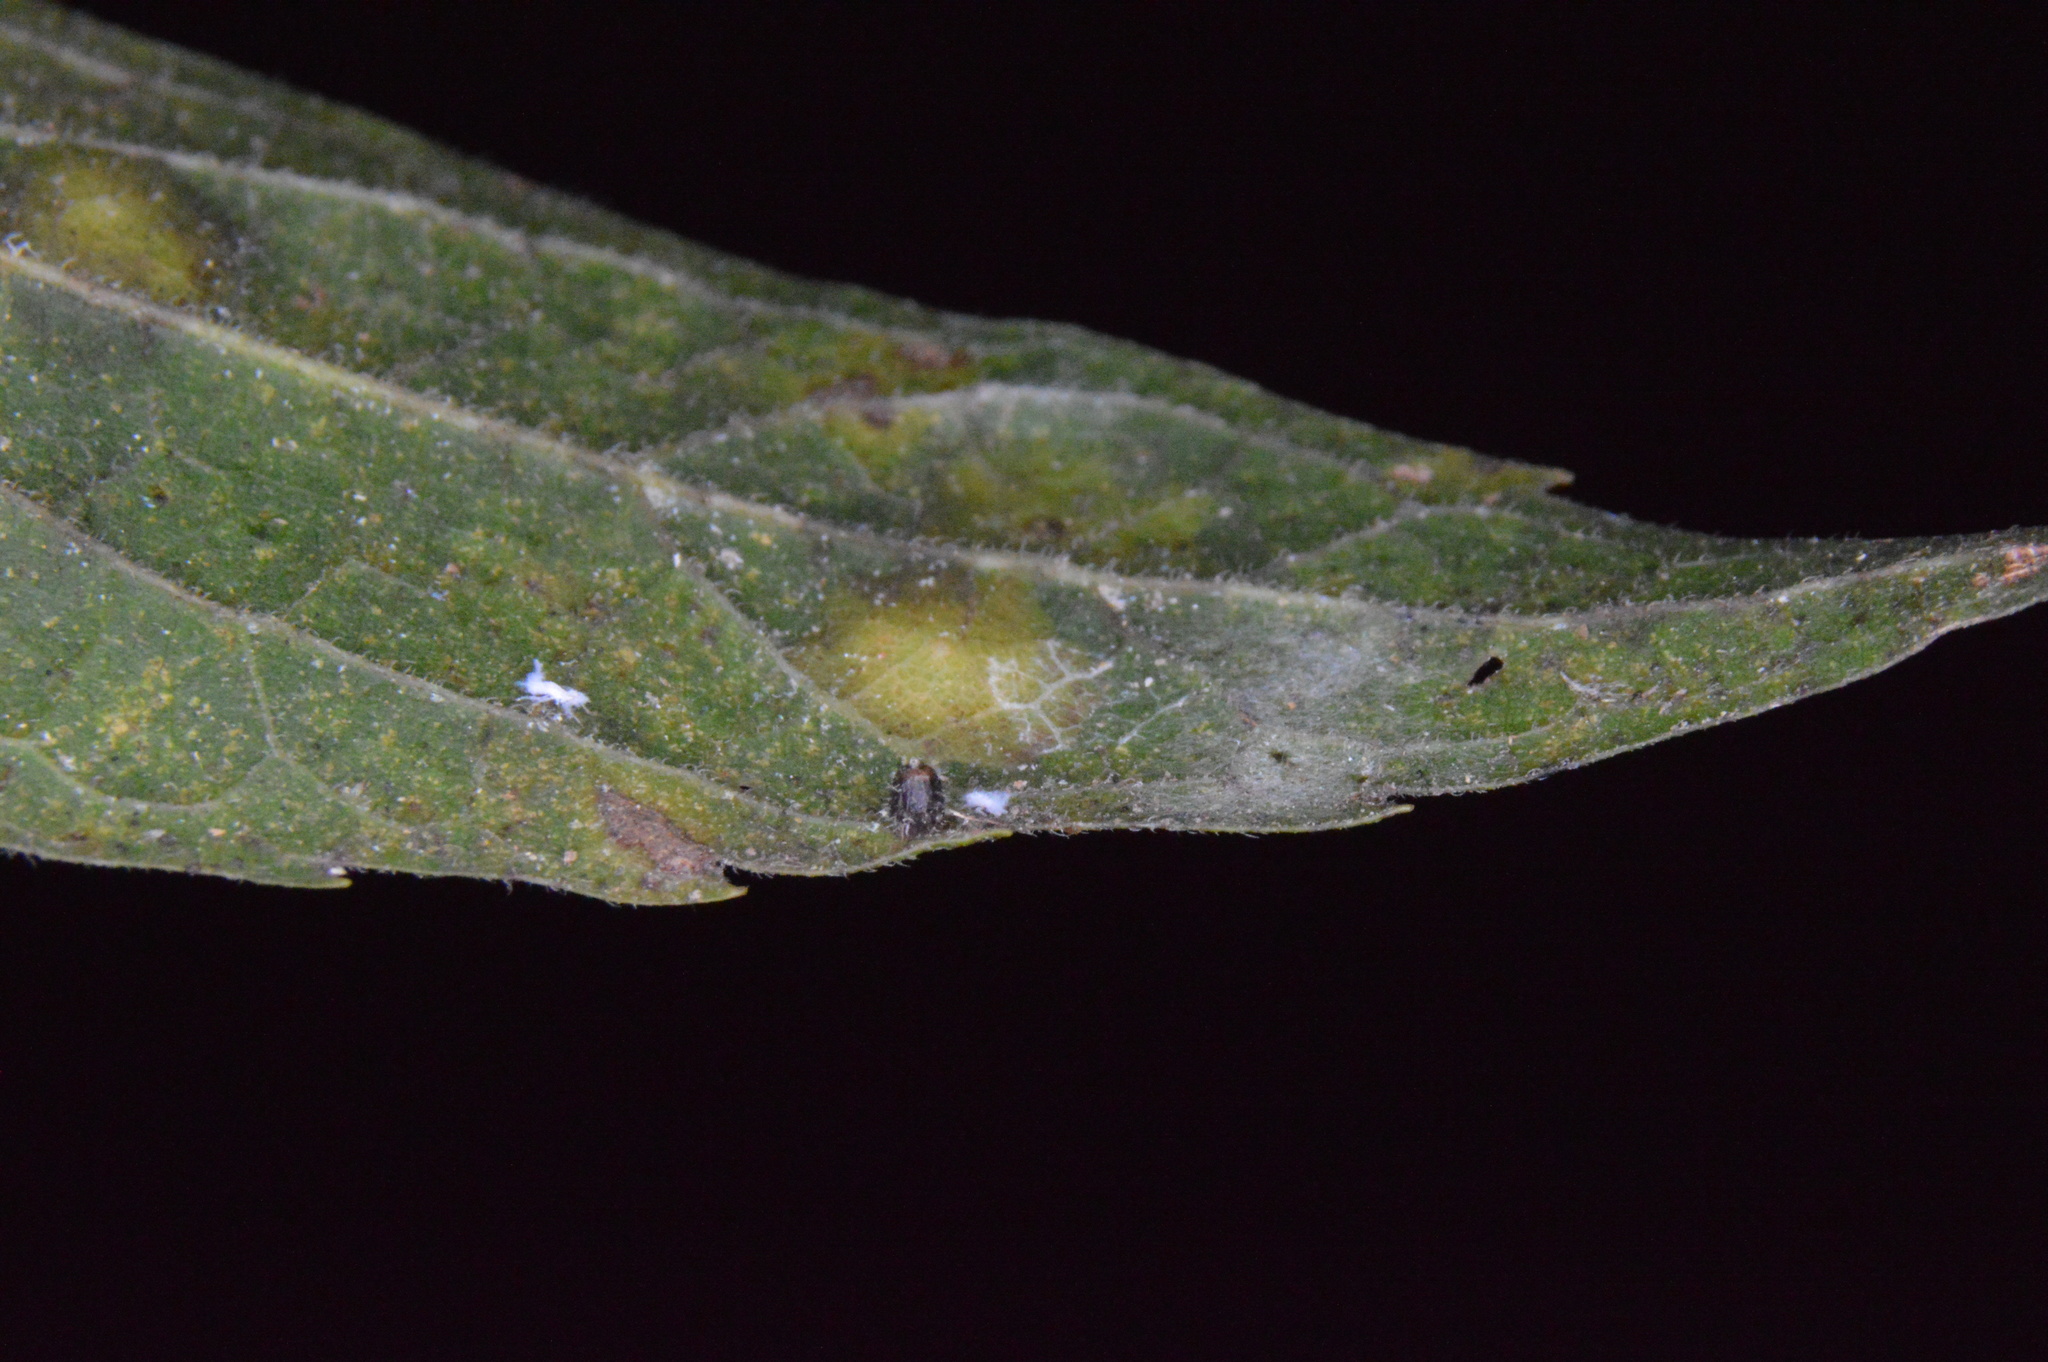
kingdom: Animalia
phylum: Arthropoda
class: Insecta
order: Diptera
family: Cecidomyiidae
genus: Celticecis
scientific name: Celticecis cupiformis
